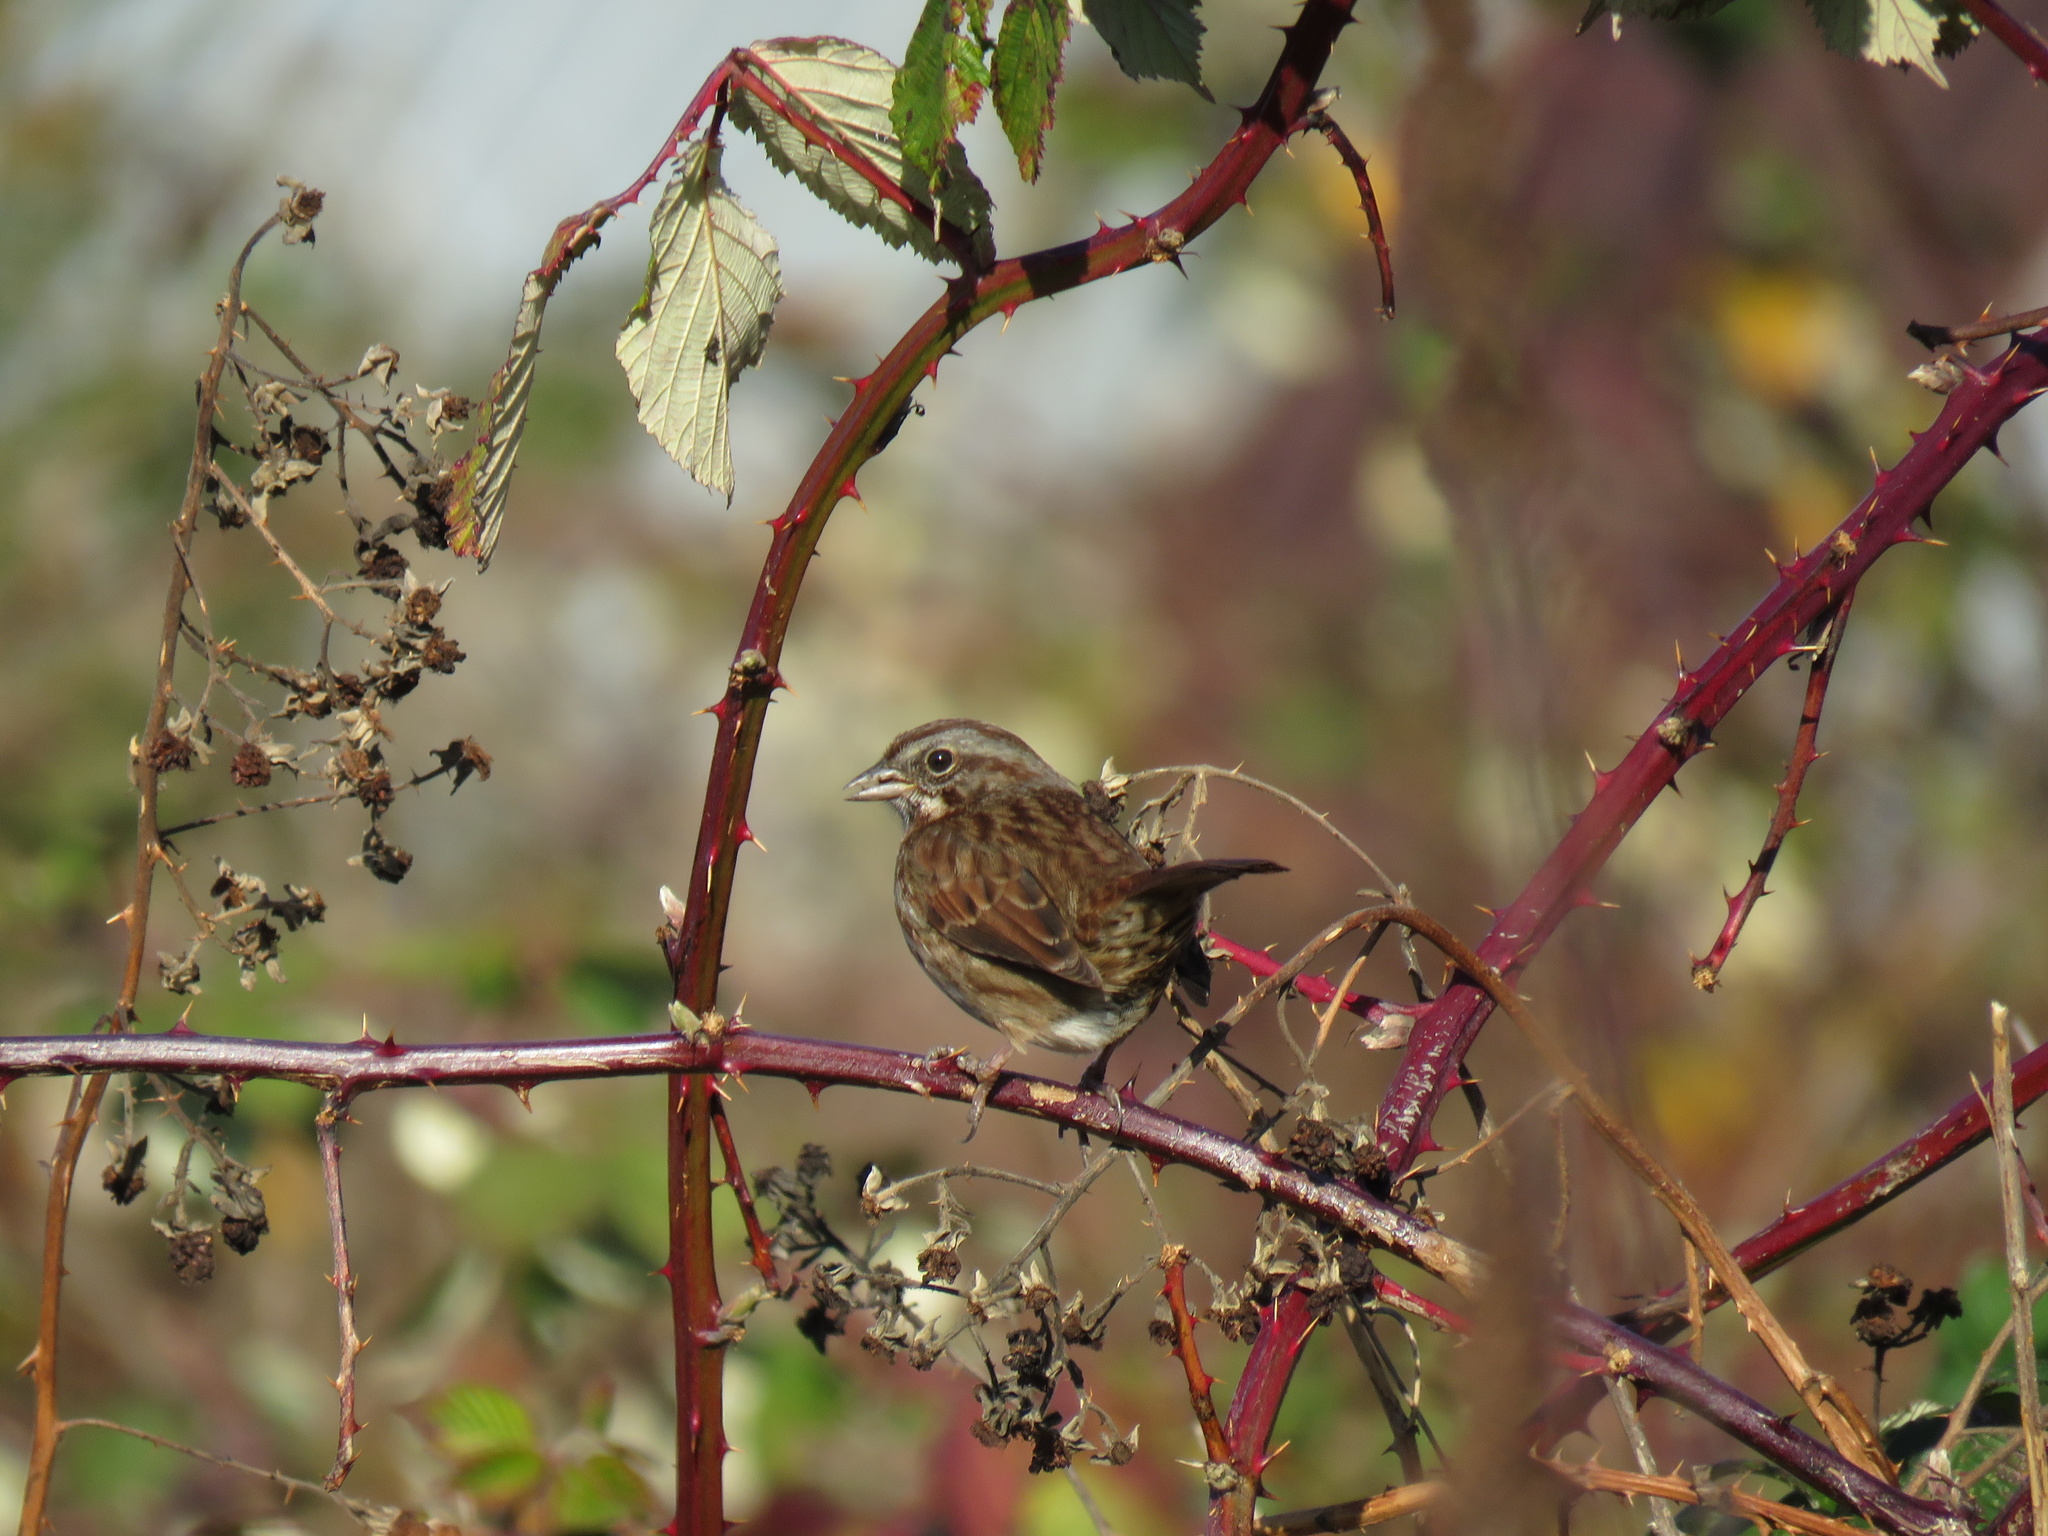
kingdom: Animalia
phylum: Chordata
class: Aves
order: Passeriformes
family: Passerellidae
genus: Melospiza
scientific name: Melospiza melodia
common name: Song sparrow
